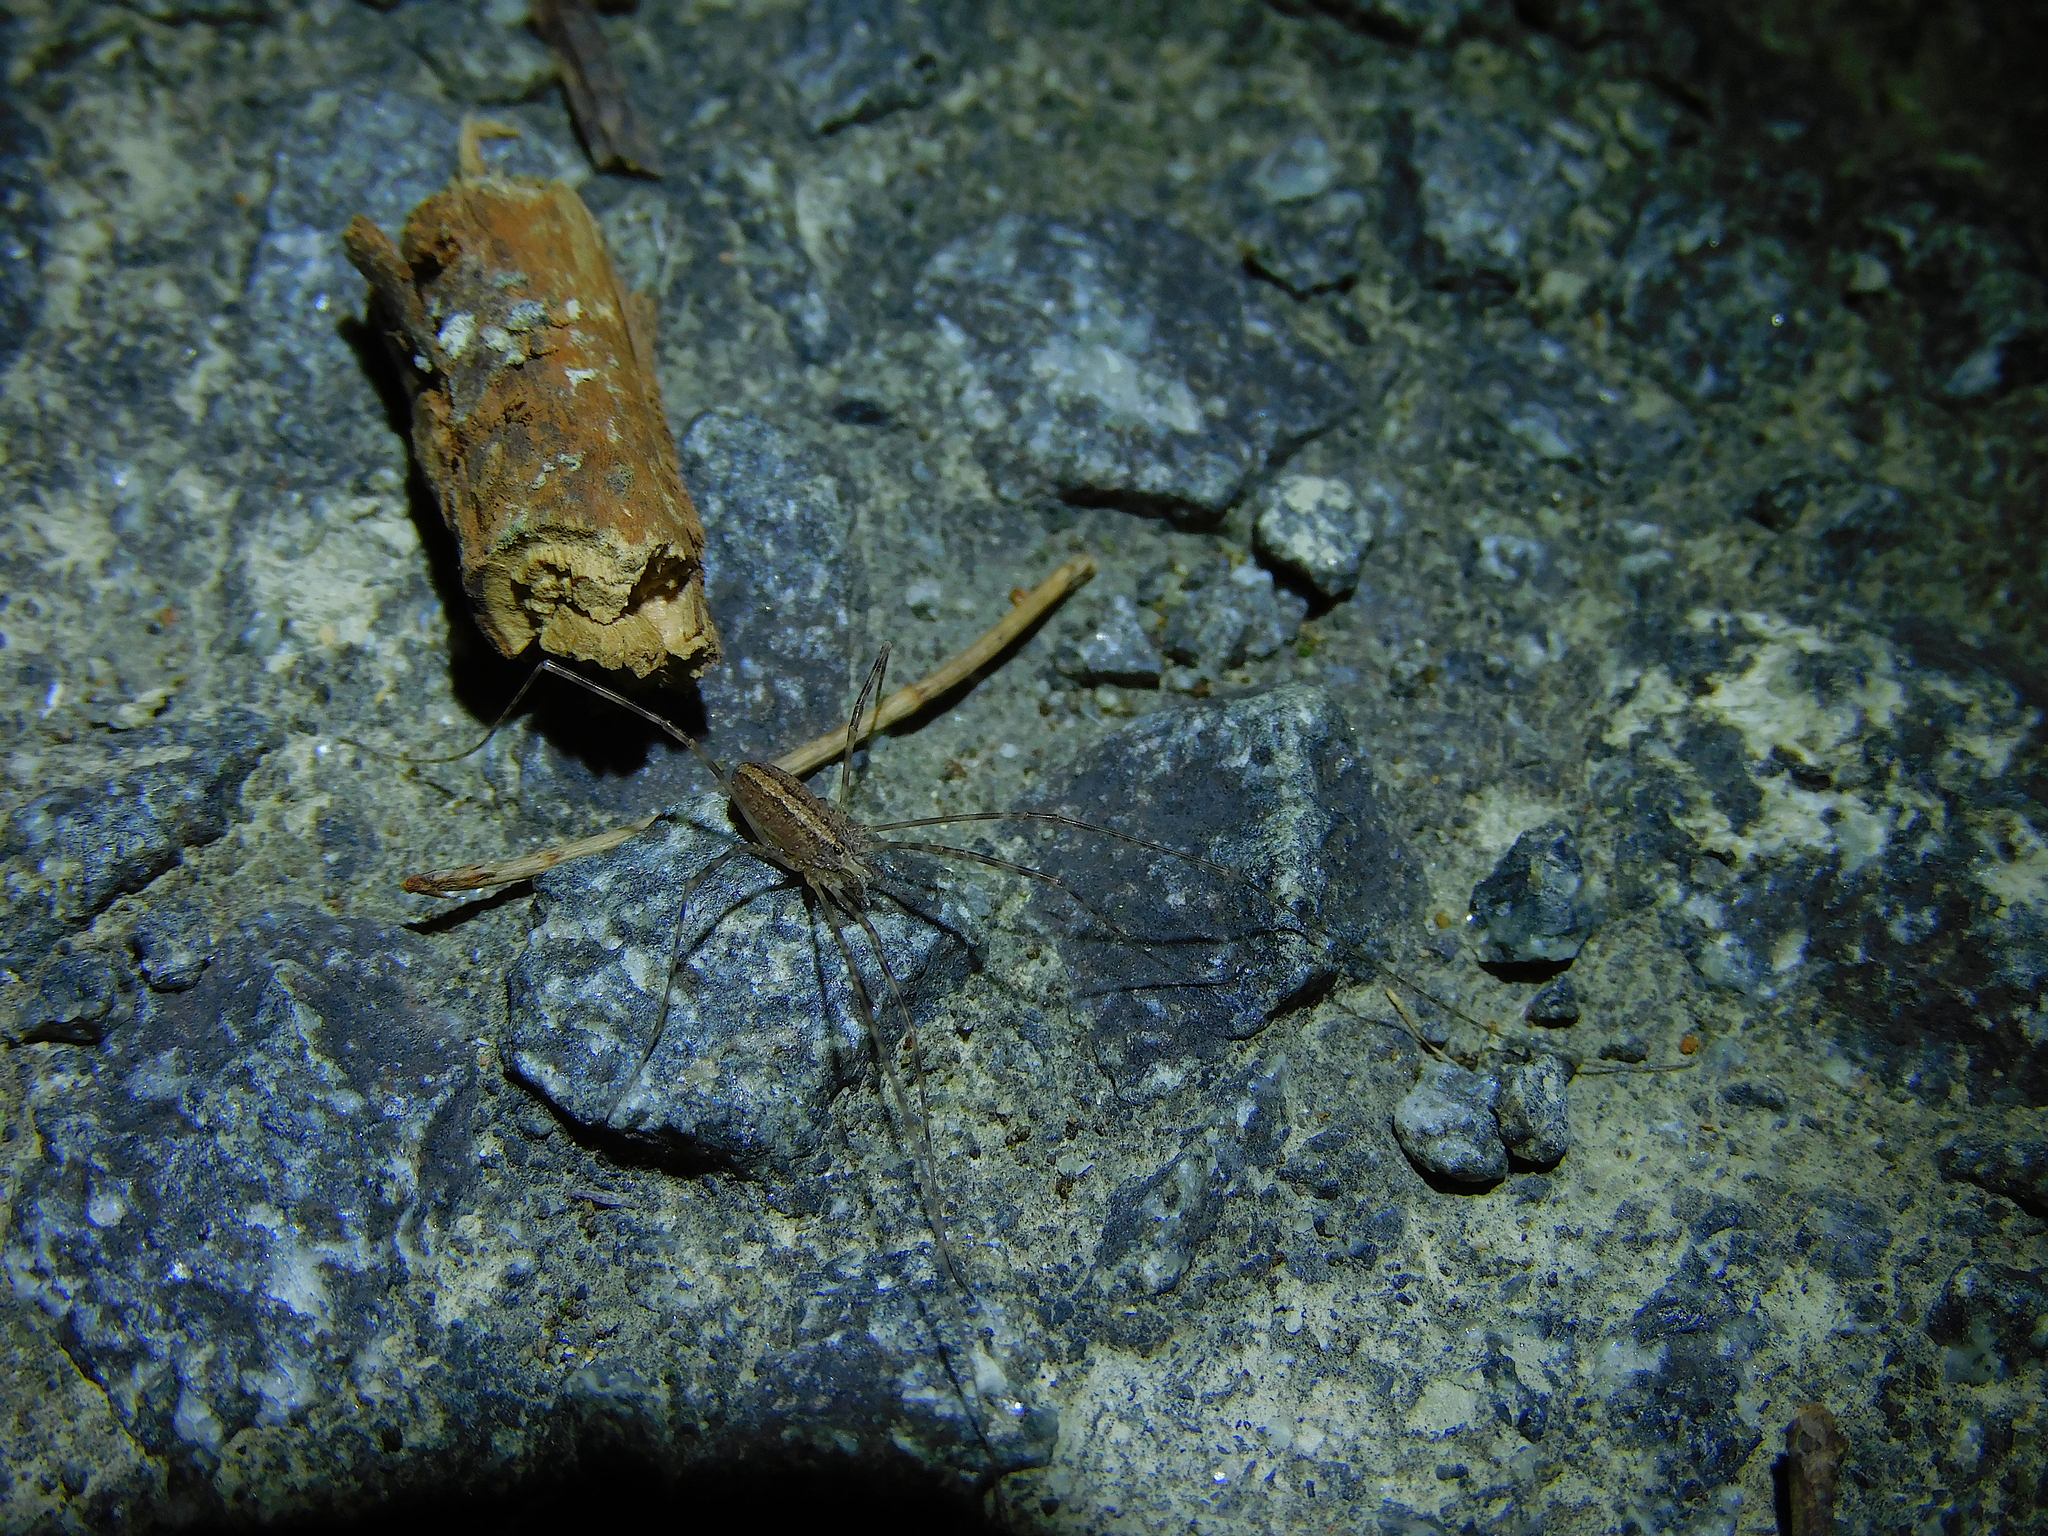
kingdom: Animalia
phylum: Arthropoda
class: Arachnida
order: Opiliones
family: Neopilionidae
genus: Megalopsalis
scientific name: Megalopsalis tasmanica
